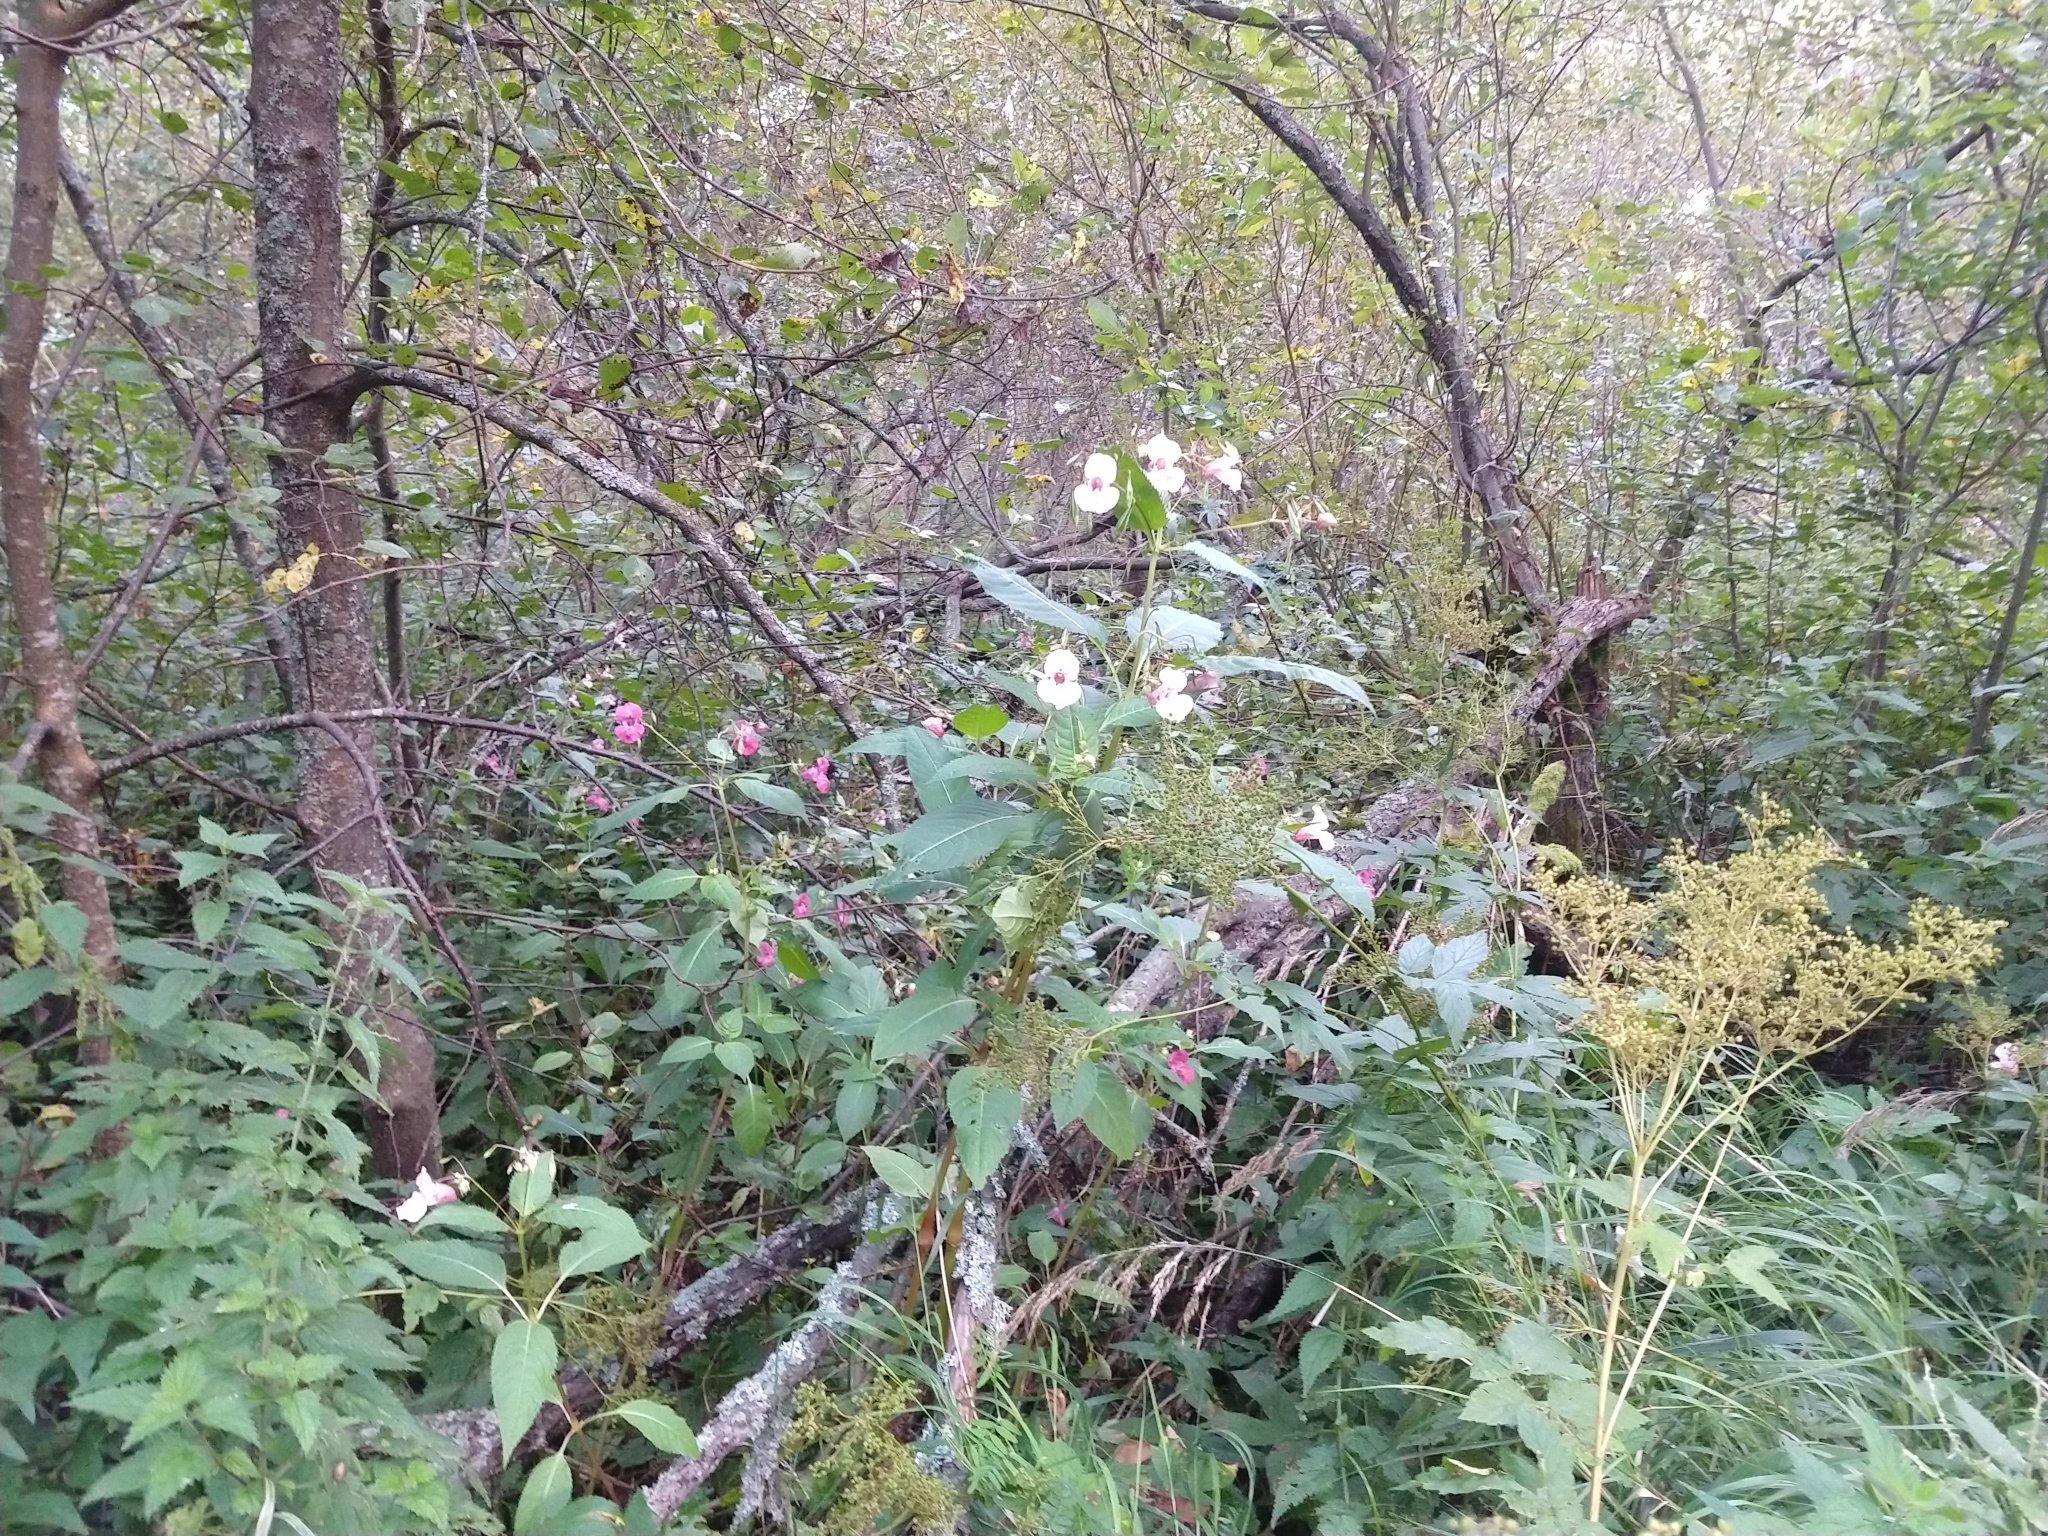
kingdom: Plantae
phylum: Tracheophyta
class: Magnoliopsida
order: Ericales
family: Balsaminaceae
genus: Impatiens
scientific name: Impatiens glandulifera
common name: Himalayan balsam
